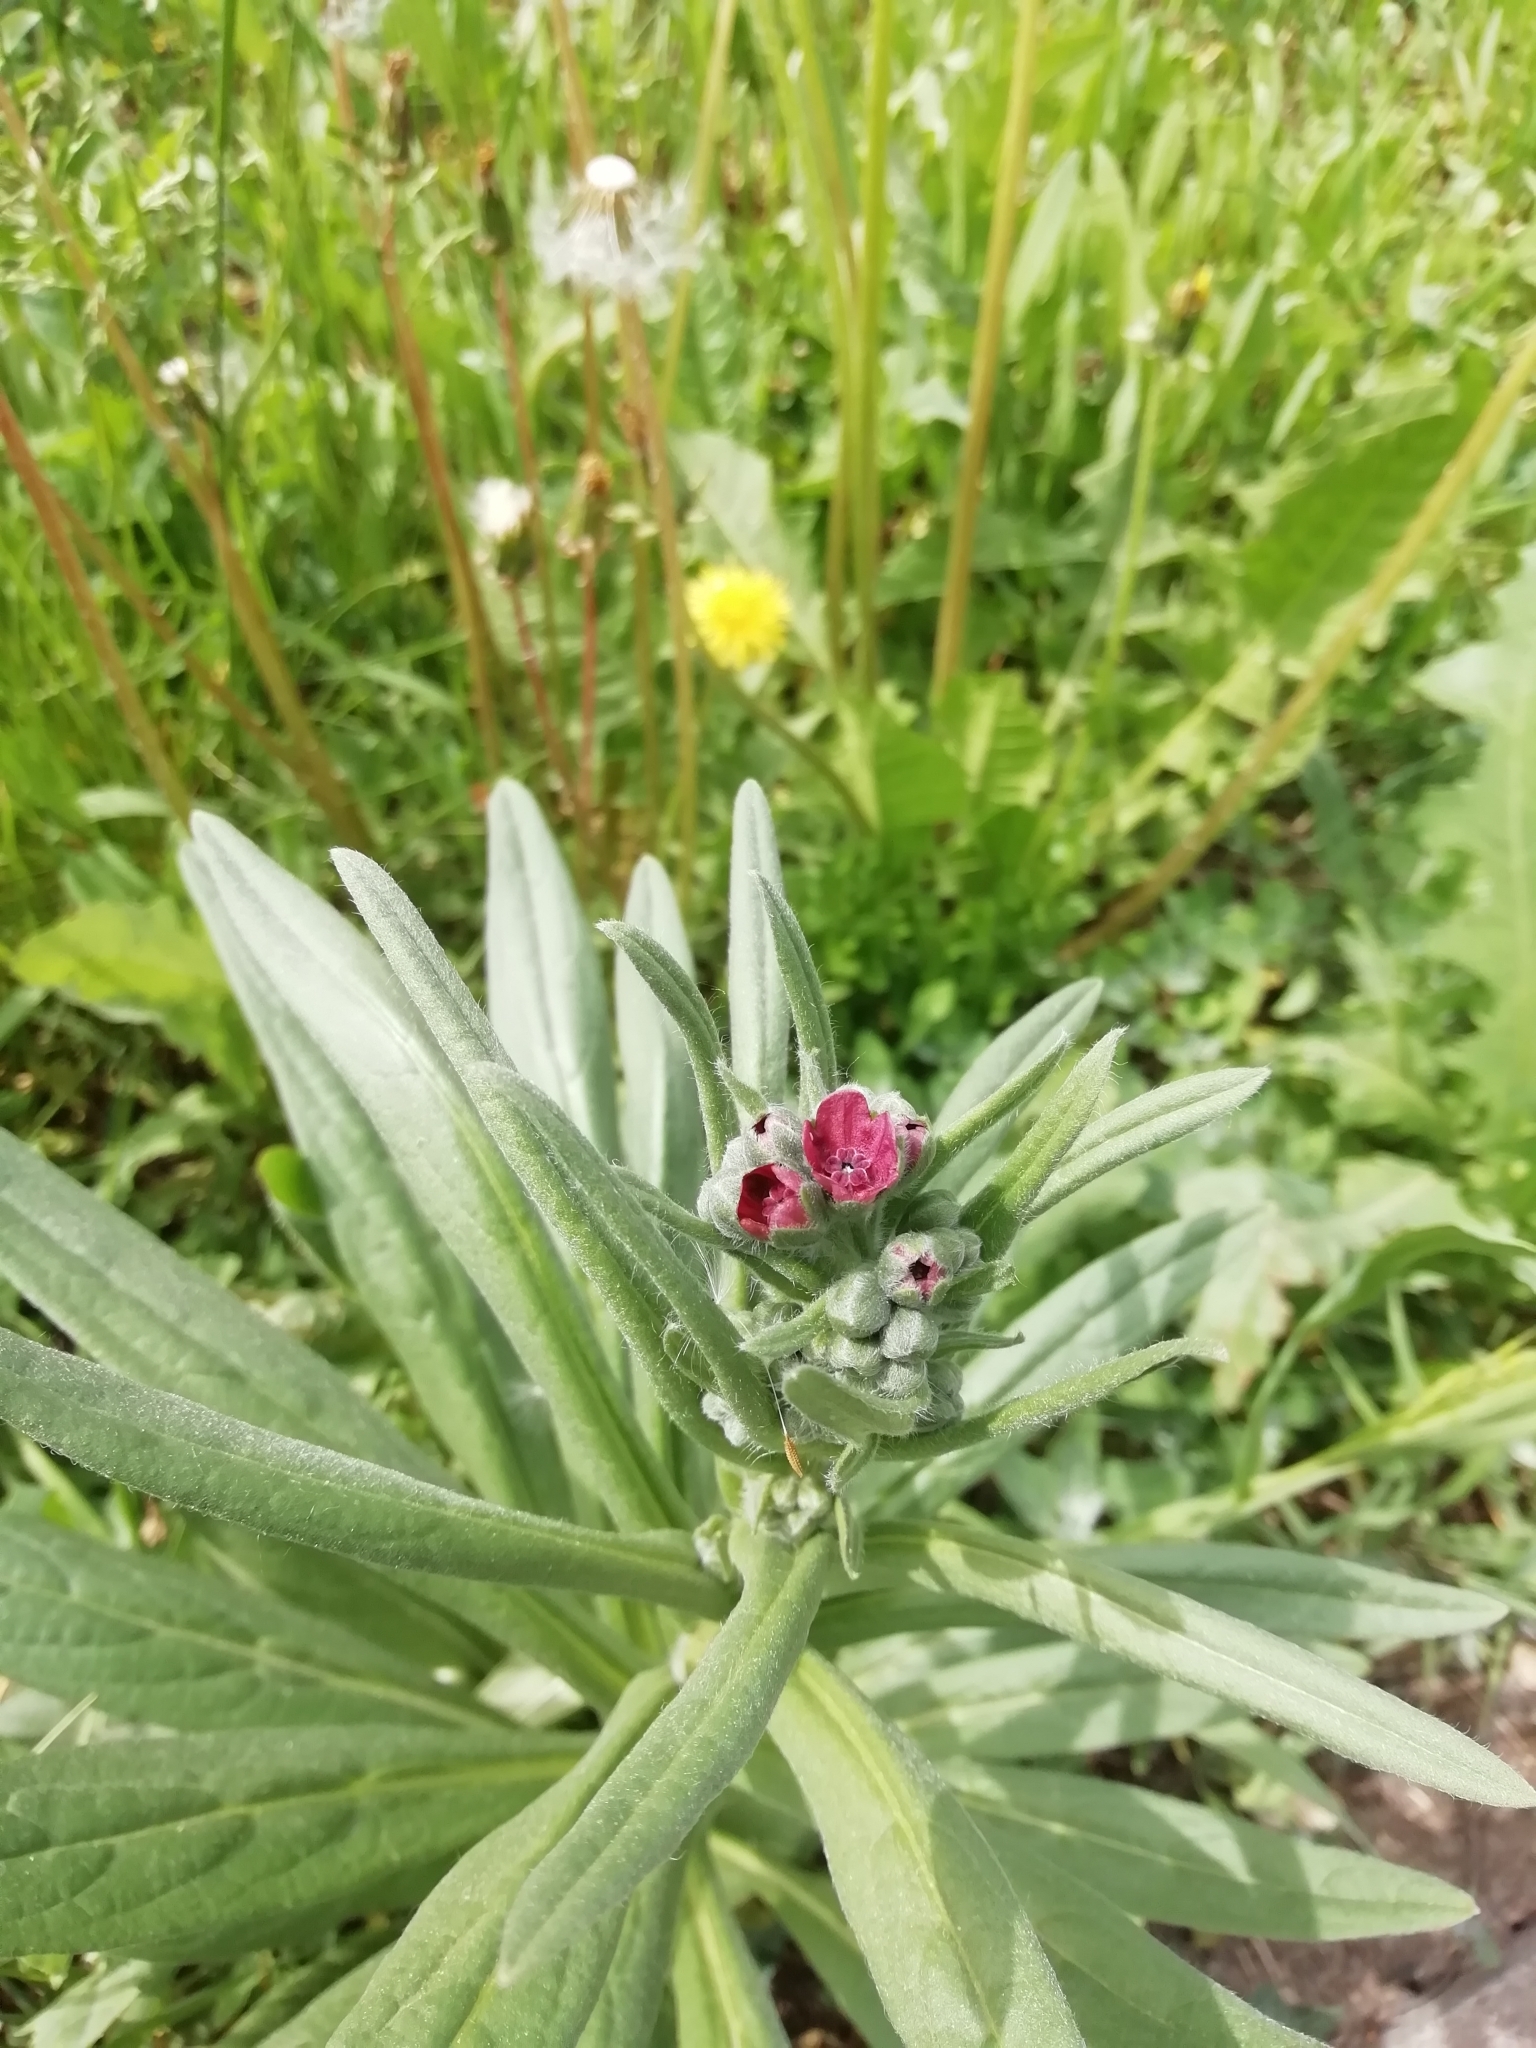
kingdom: Plantae
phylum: Tracheophyta
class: Magnoliopsida
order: Boraginales
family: Boraginaceae
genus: Cynoglossum
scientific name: Cynoglossum officinale
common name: Hound's-tongue
